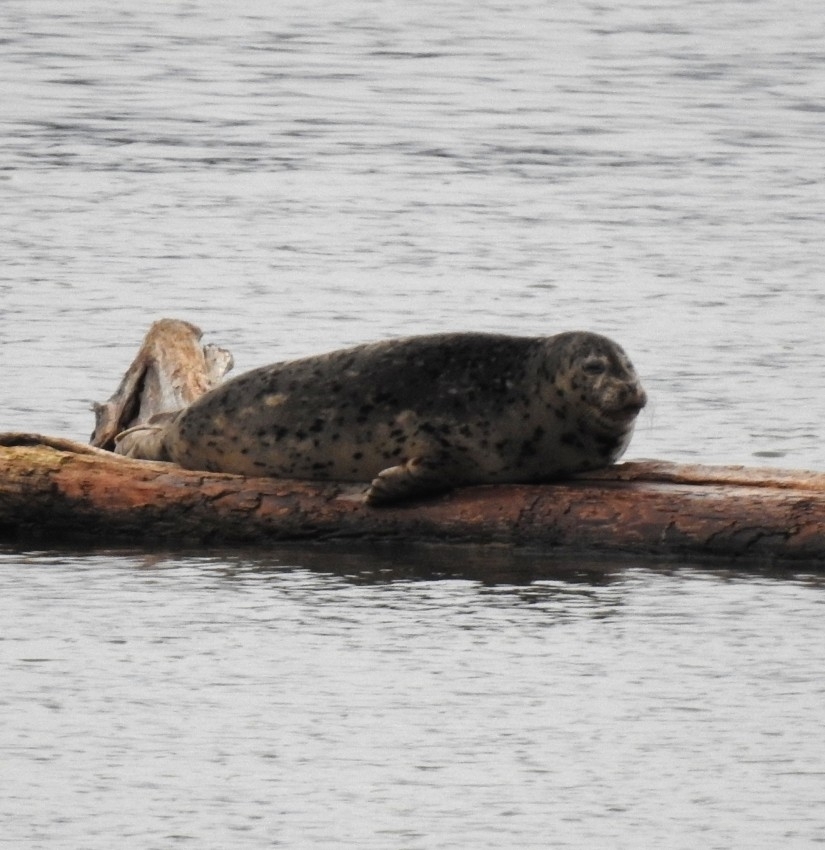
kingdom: Animalia
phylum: Chordata
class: Mammalia
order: Carnivora
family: Phocidae
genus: Phoca
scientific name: Phoca vitulina
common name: Harbor seal
